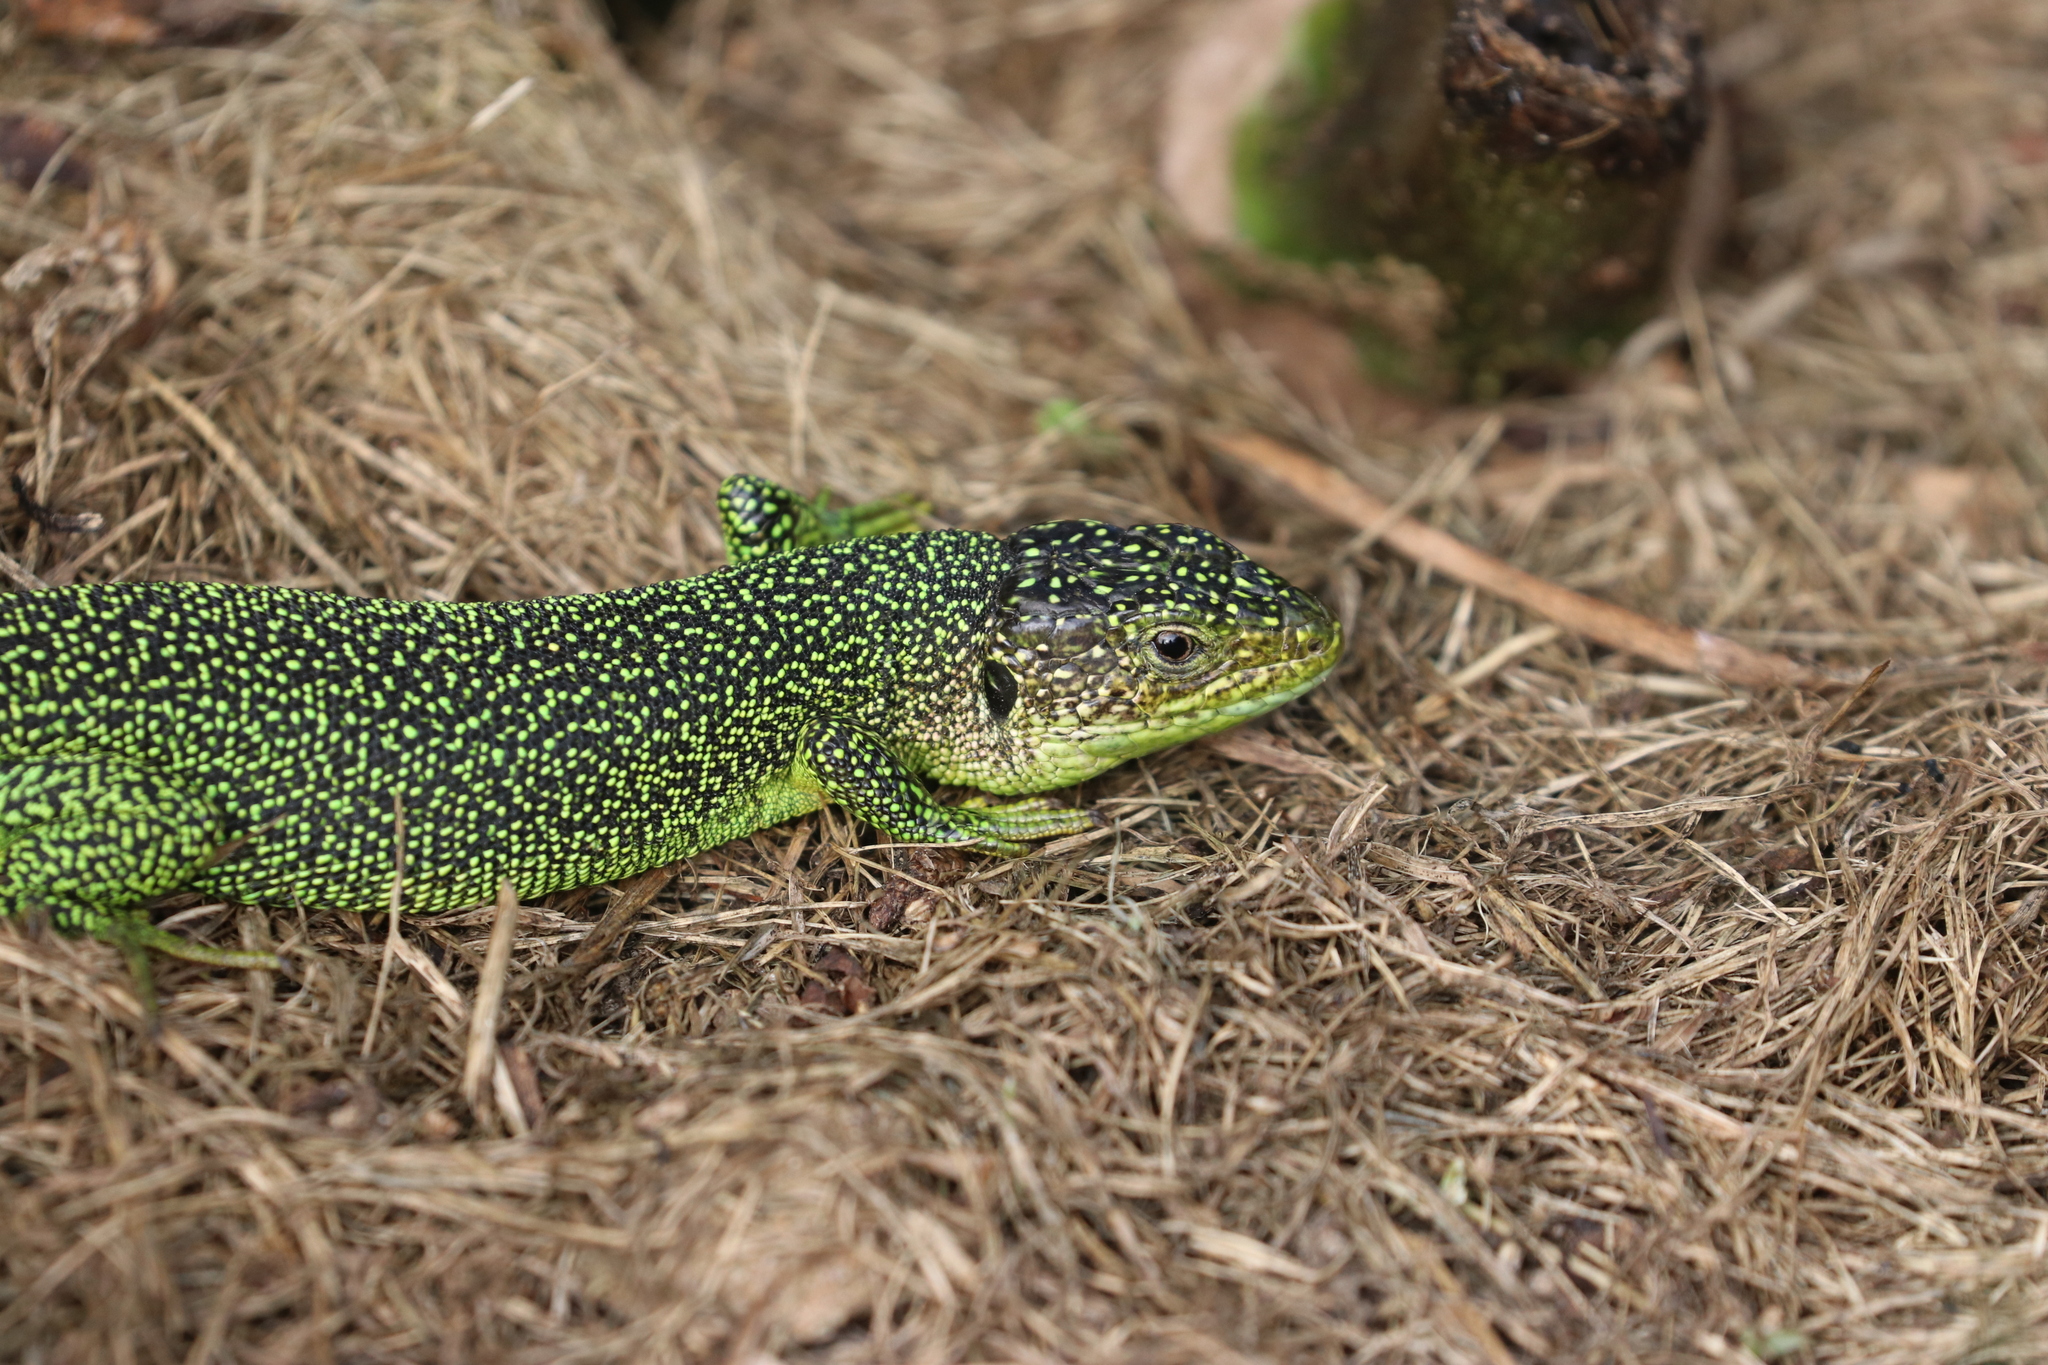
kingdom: Animalia
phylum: Chordata
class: Squamata
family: Lacertidae
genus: Lacerta
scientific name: Lacerta bilineata
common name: Western green lizard
